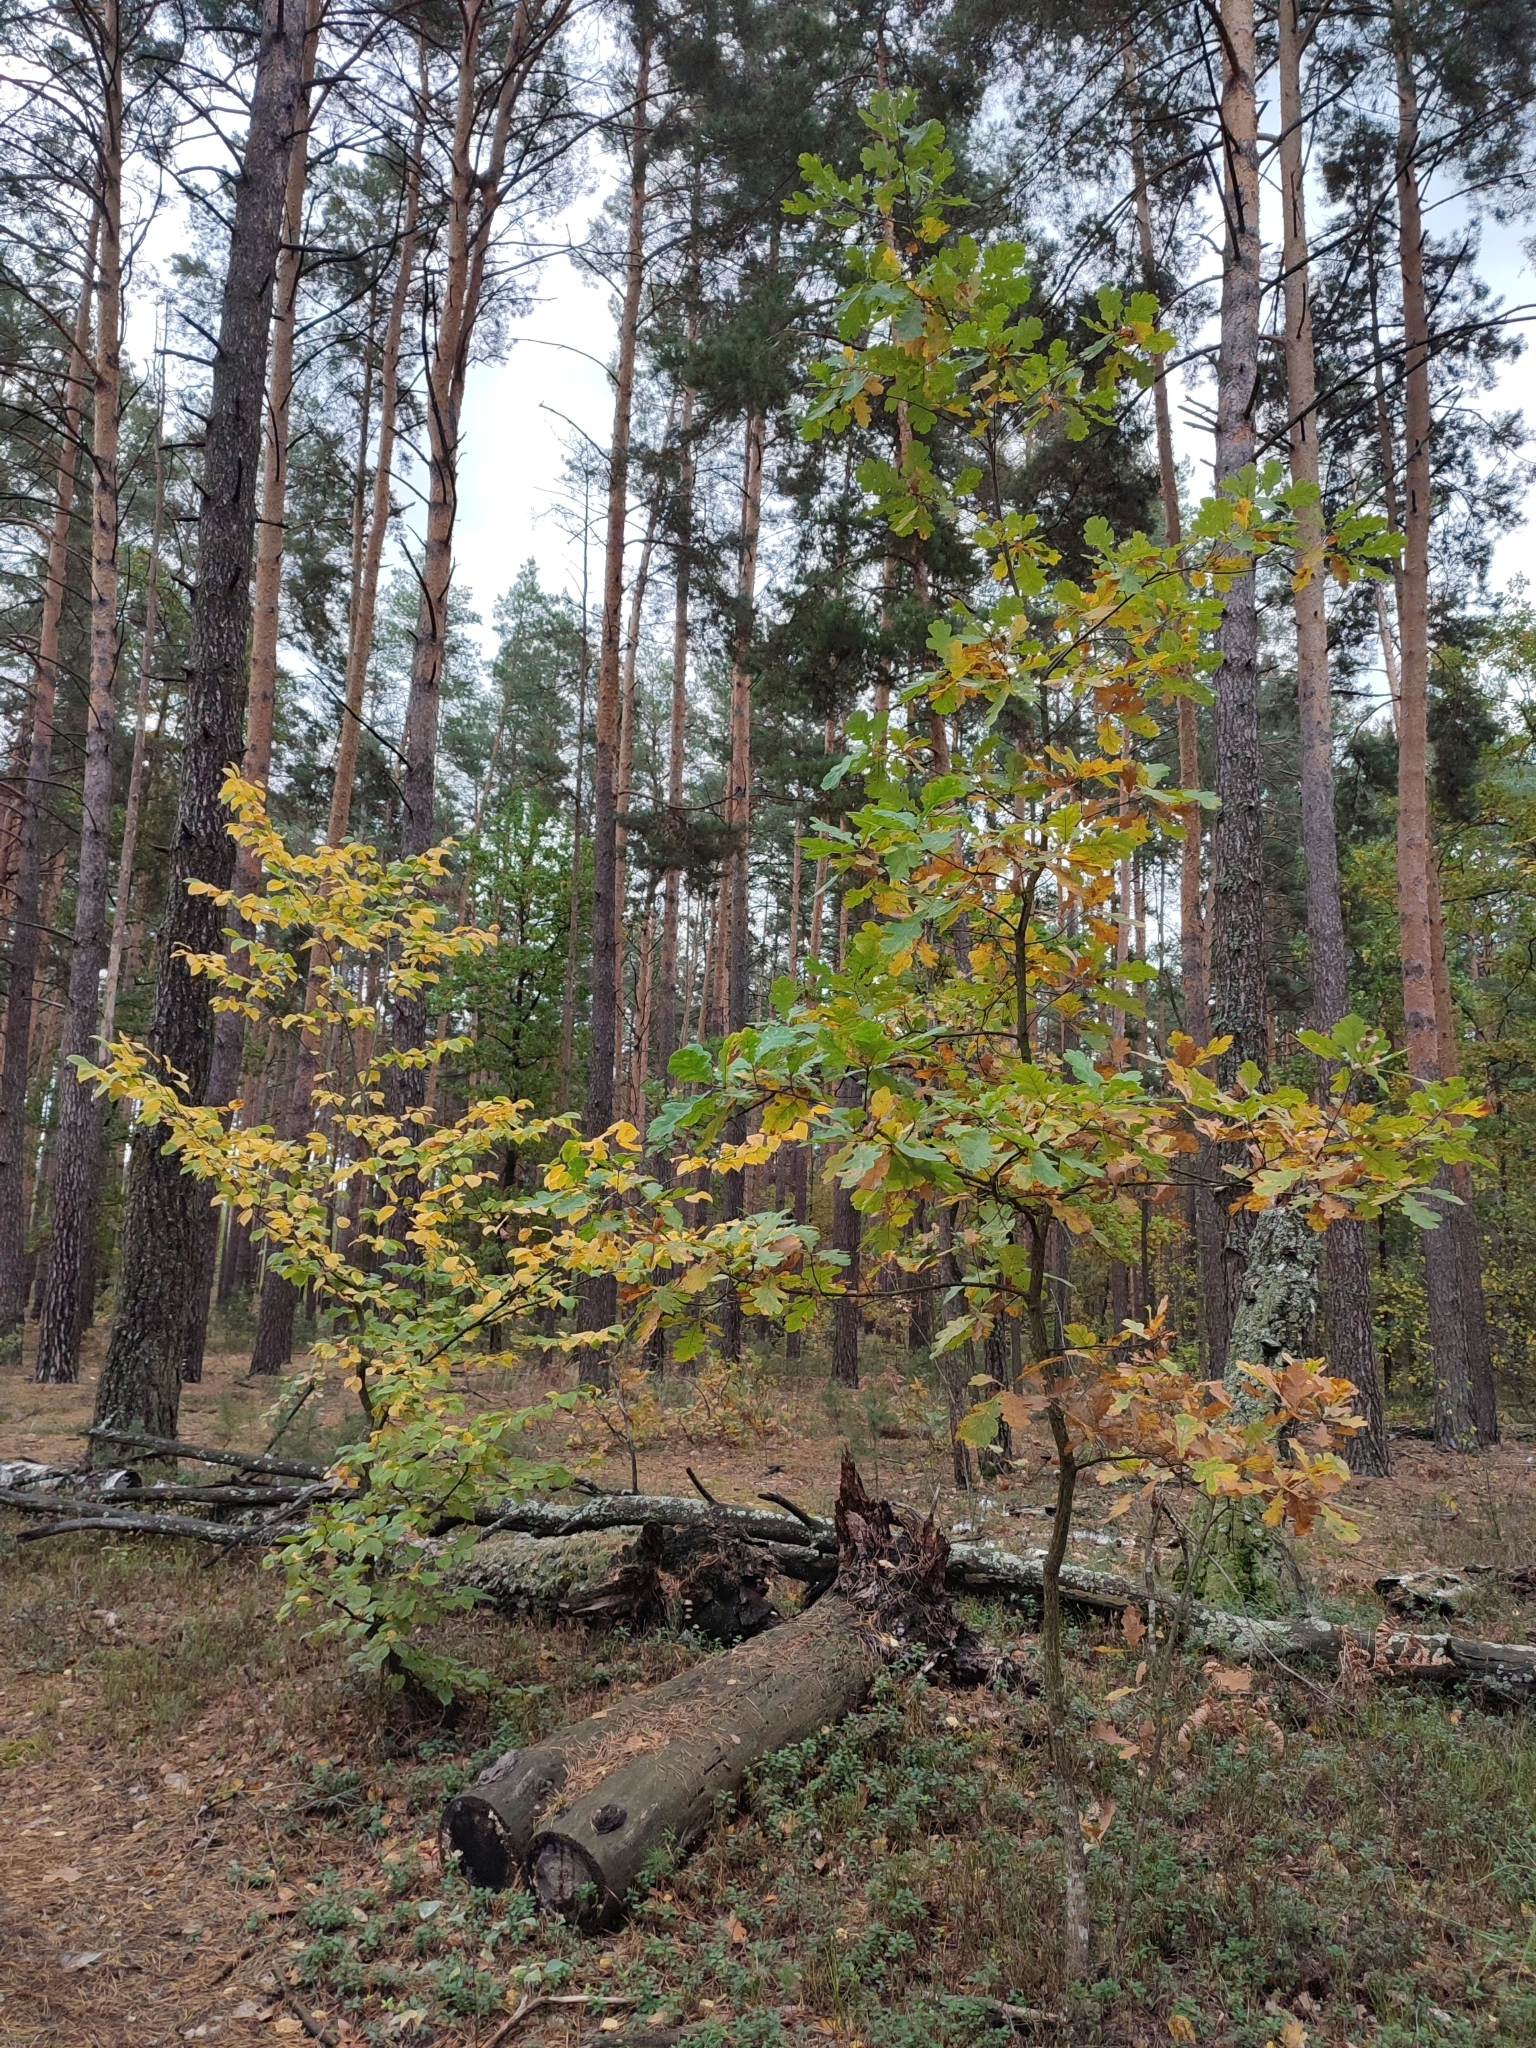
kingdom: Plantae
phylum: Tracheophyta
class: Magnoliopsida
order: Fagales
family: Fagaceae
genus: Quercus
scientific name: Quercus robur
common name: Pedunculate oak
